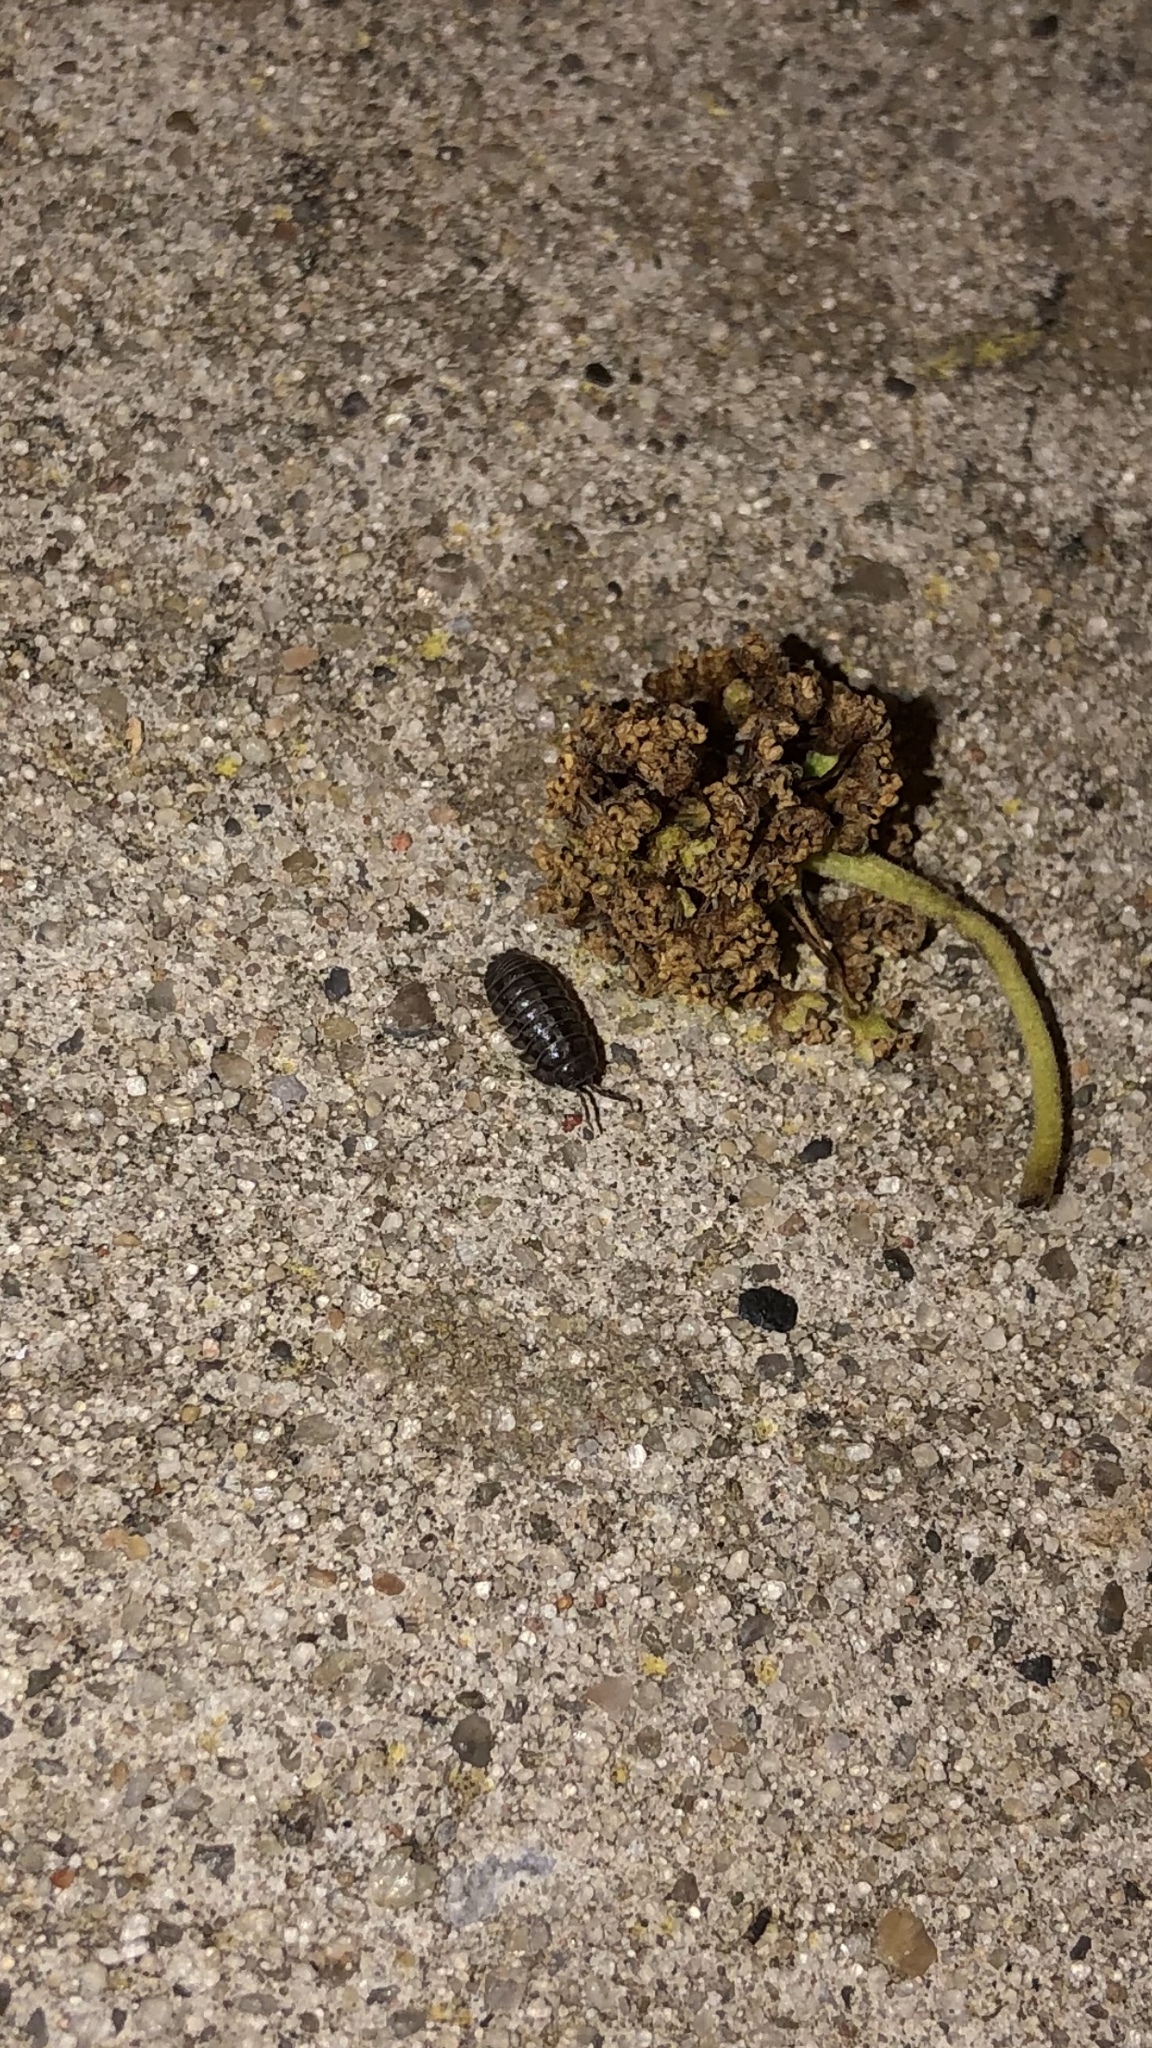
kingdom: Animalia
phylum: Arthropoda
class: Malacostraca
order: Isopoda
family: Armadillidiidae
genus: Armadillidium
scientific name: Armadillidium nasatum
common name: Isopod
